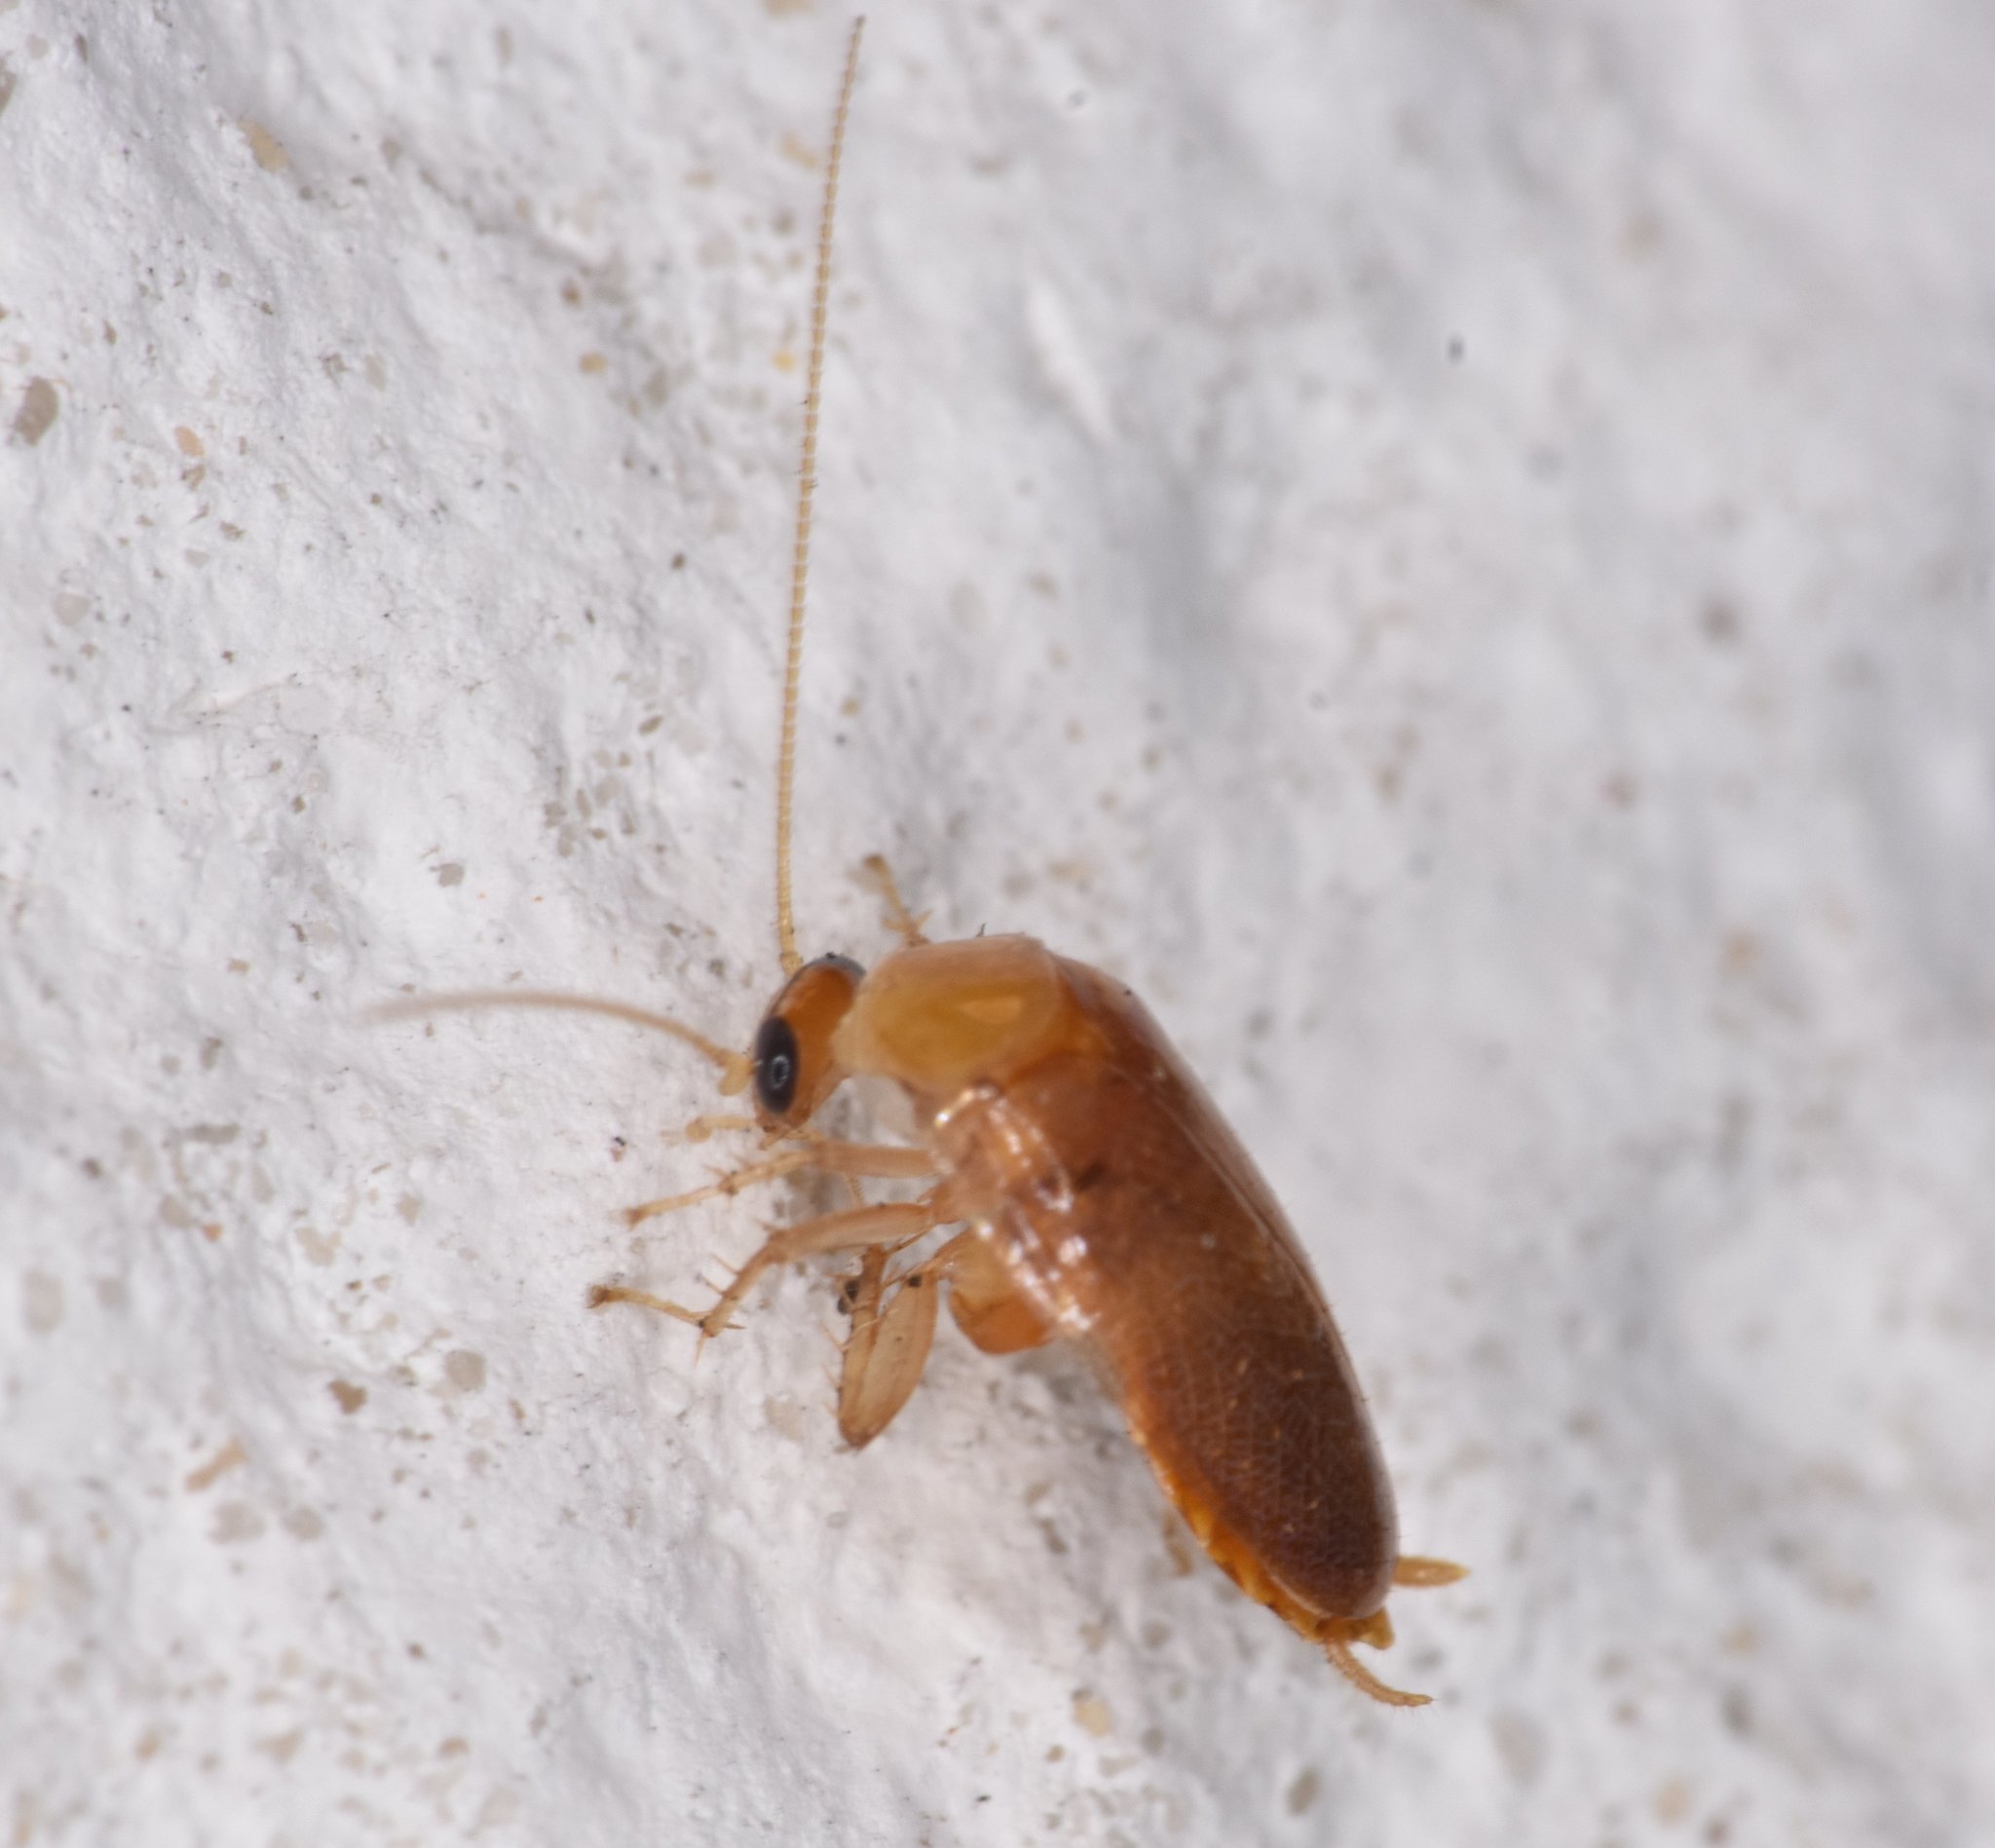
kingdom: Animalia
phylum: Arthropoda
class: Insecta
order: Blattodea
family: Ectobiidae
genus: Plectoptera
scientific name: Plectoptera poeyi
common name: Florida beetle cockroach
